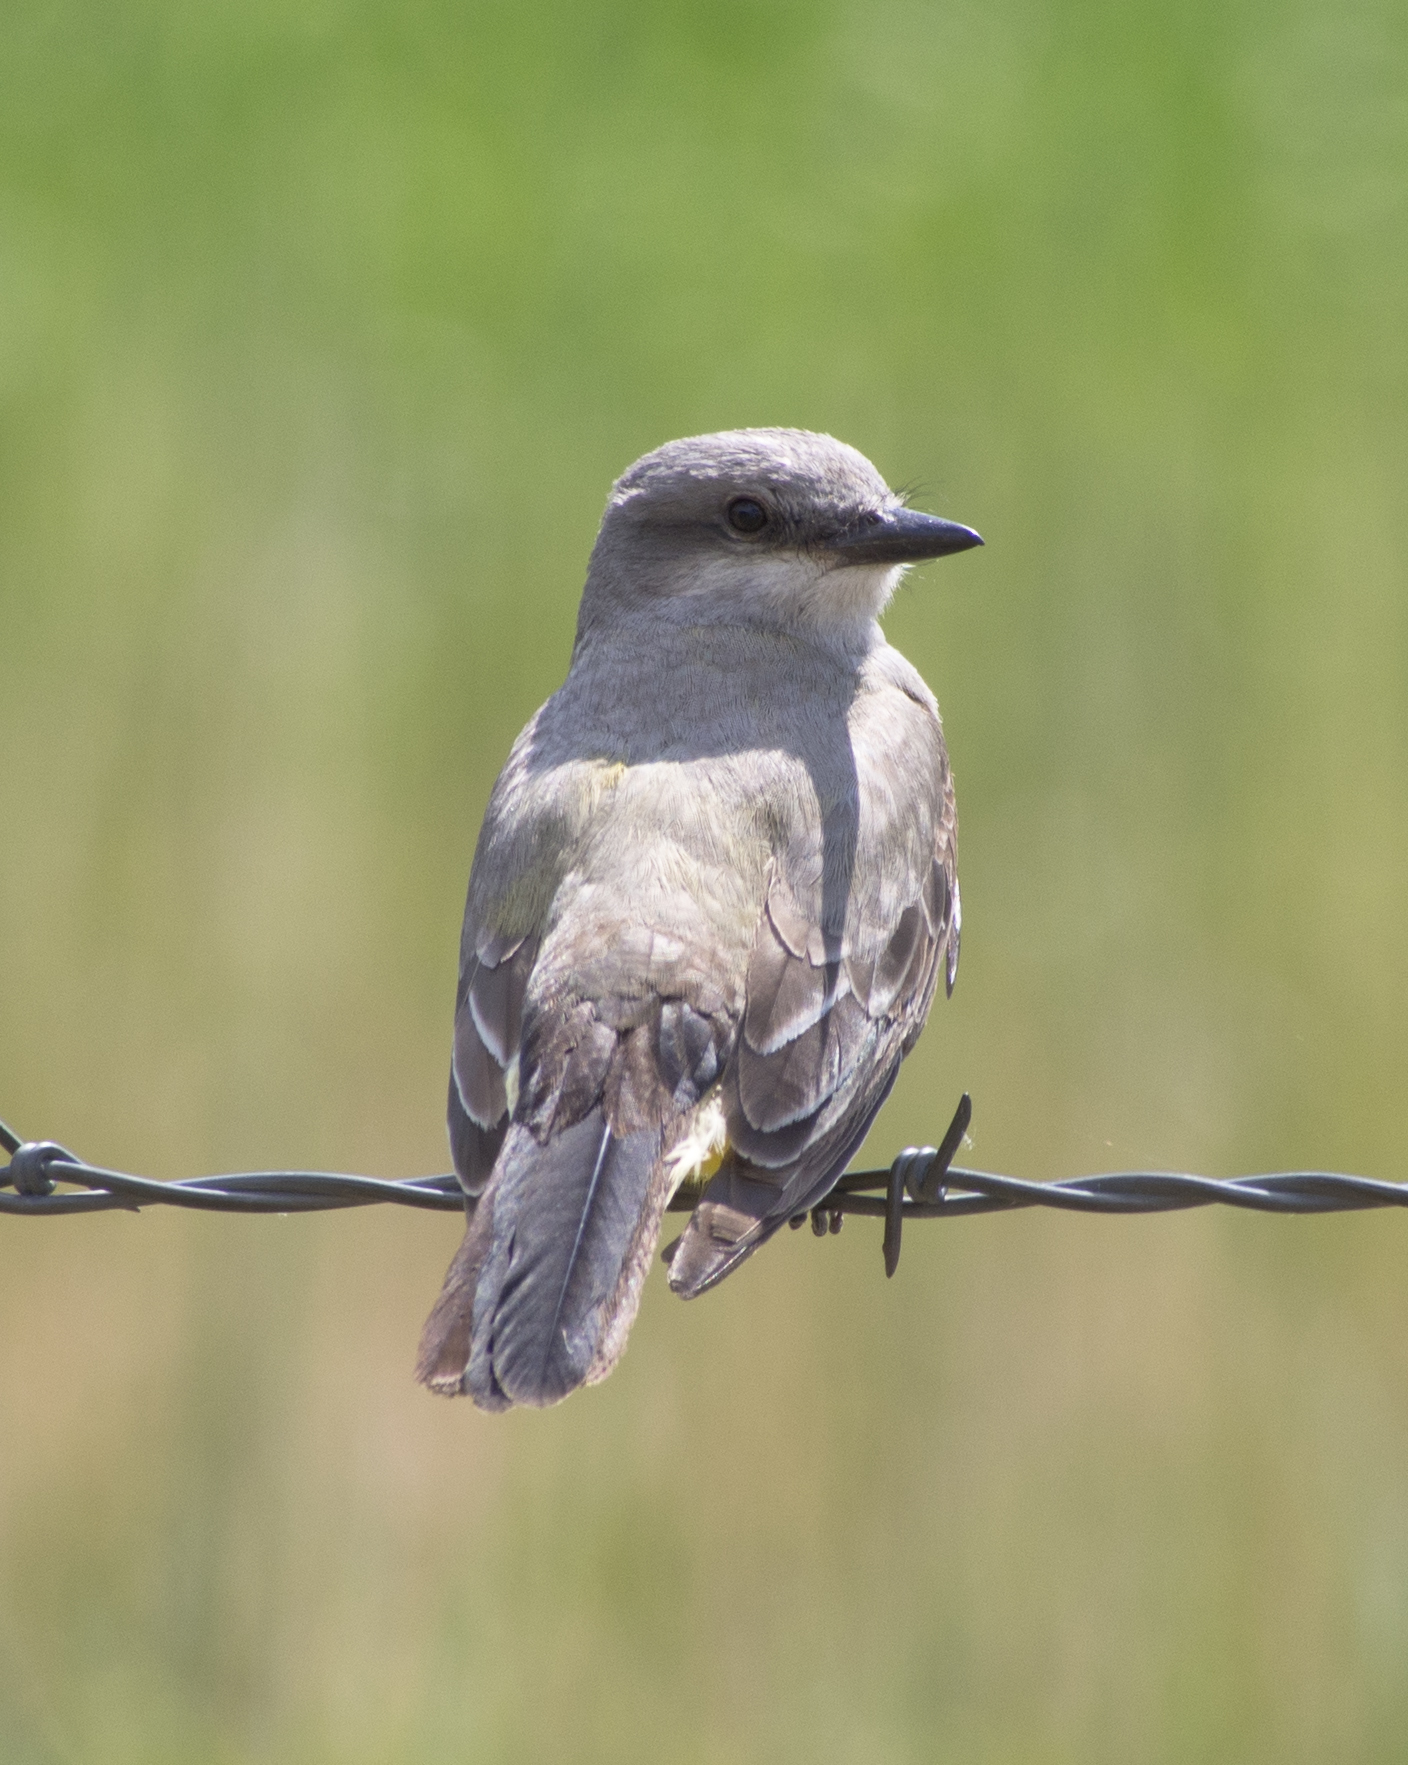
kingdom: Animalia
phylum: Chordata
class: Aves
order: Passeriformes
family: Tyrannidae
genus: Tyrannus
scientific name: Tyrannus verticalis
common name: Western kingbird
